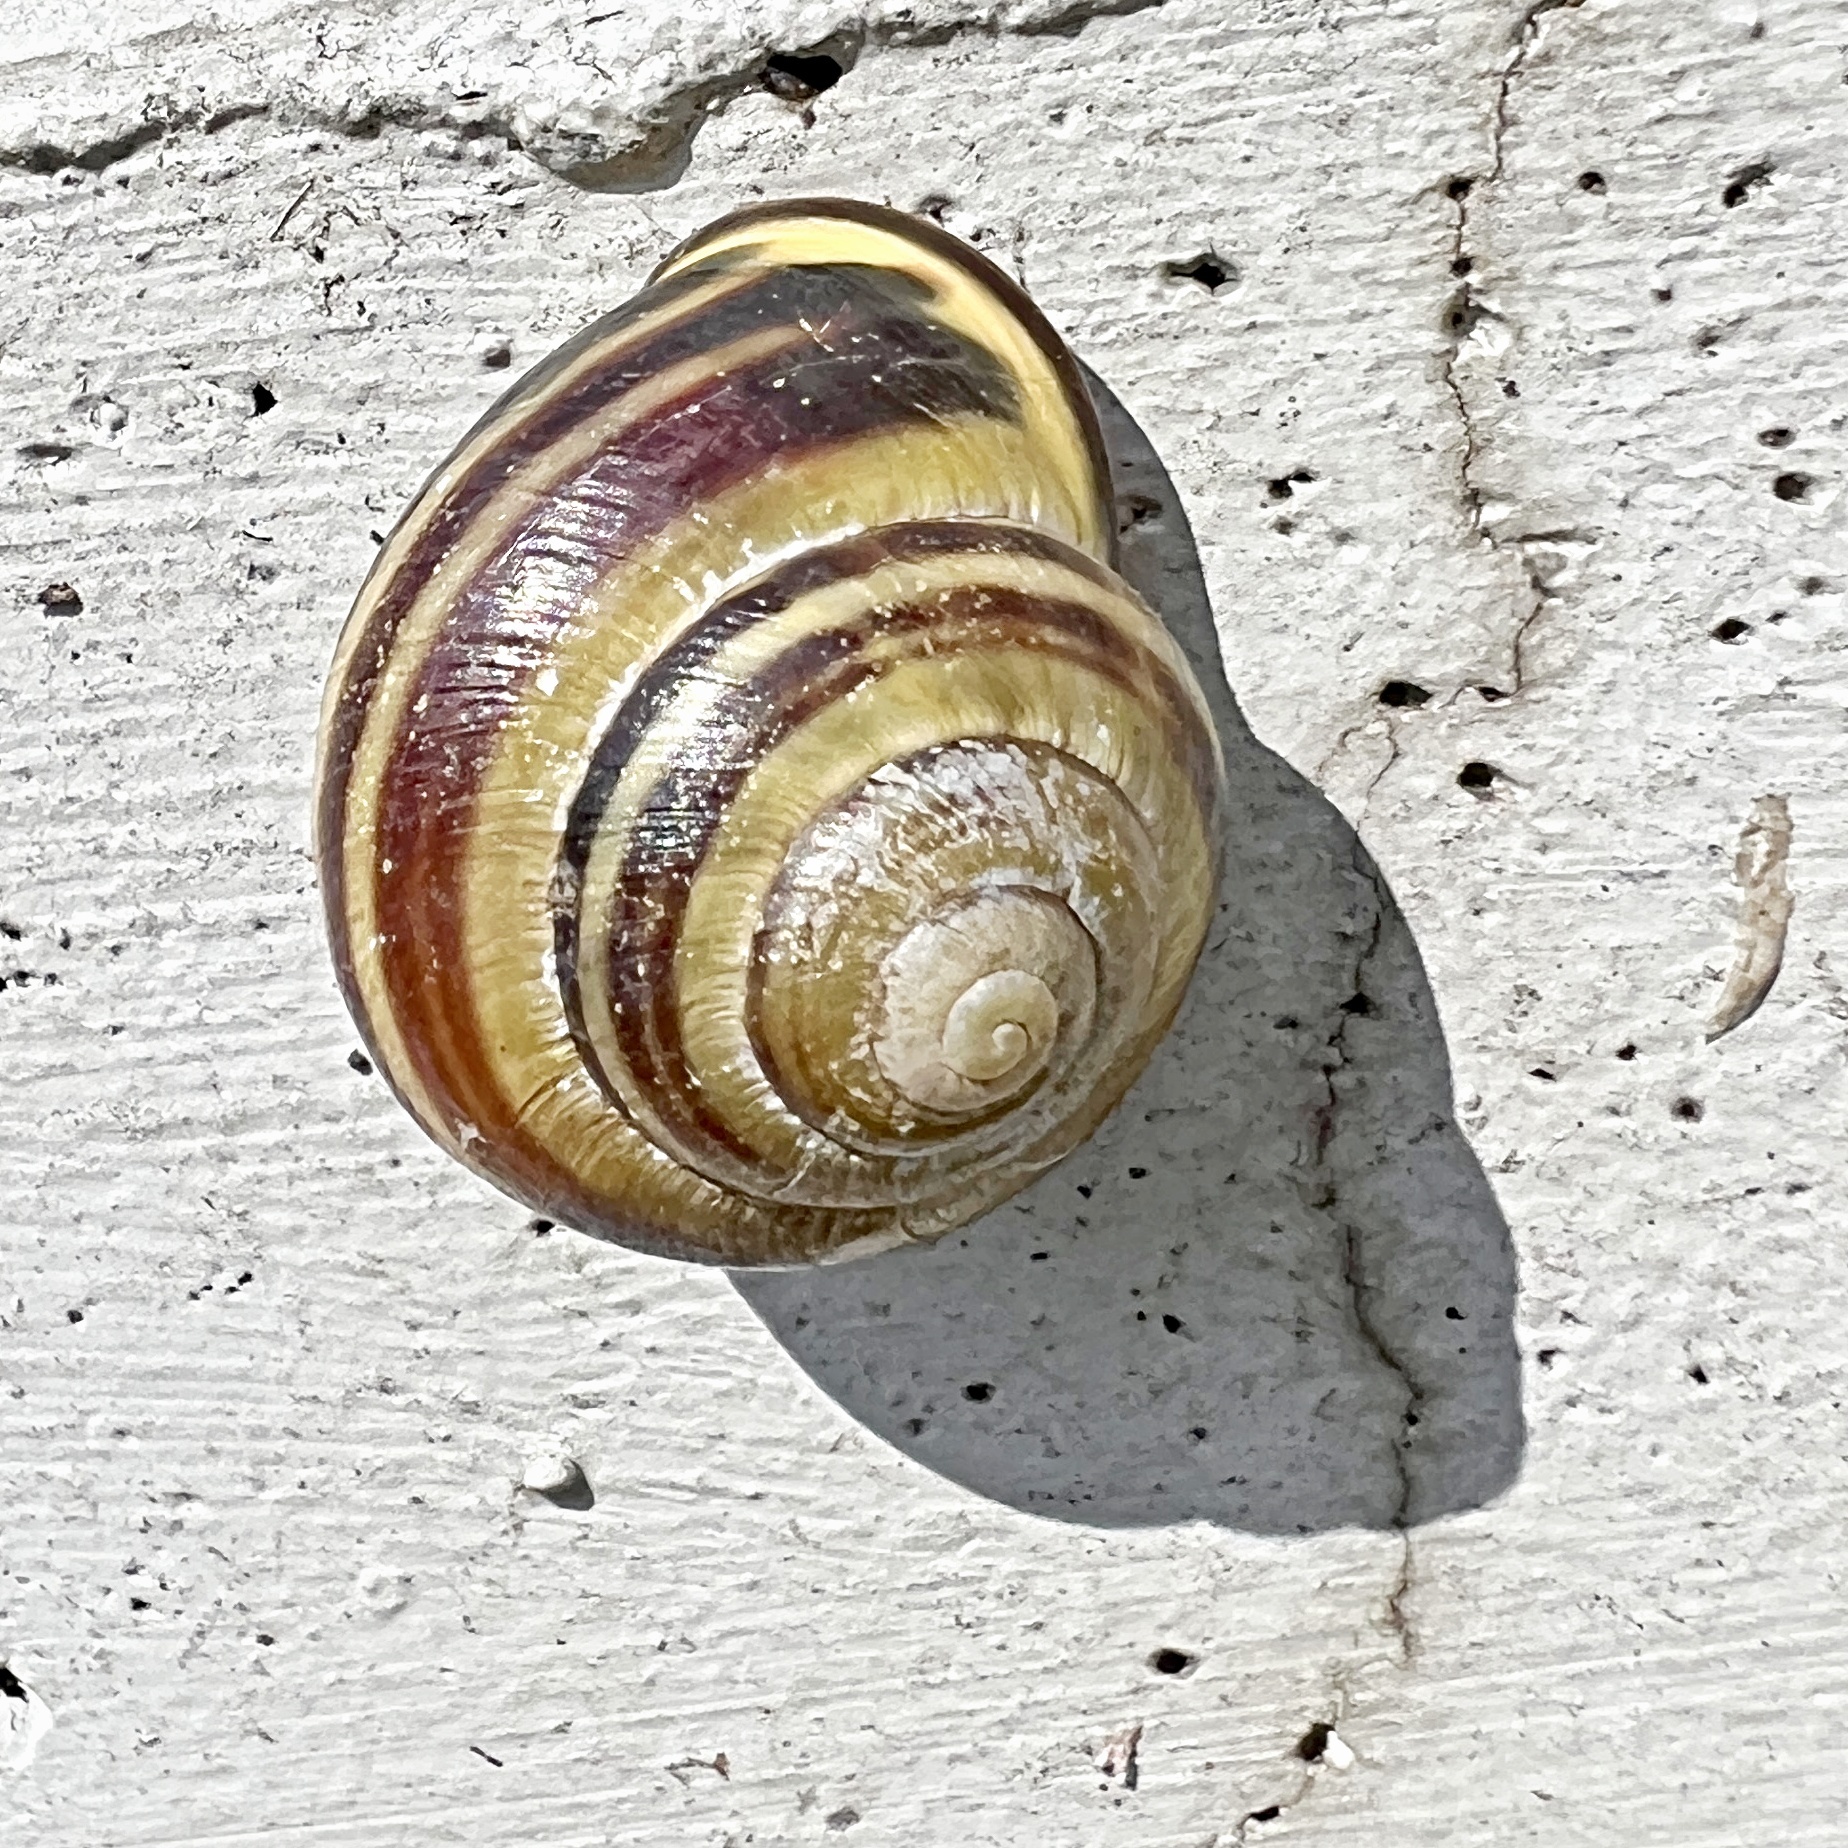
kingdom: Animalia
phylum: Mollusca
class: Gastropoda
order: Stylommatophora
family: Helicidae
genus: Cepaea
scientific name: Cepaea nemoralis
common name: Grovesnail
